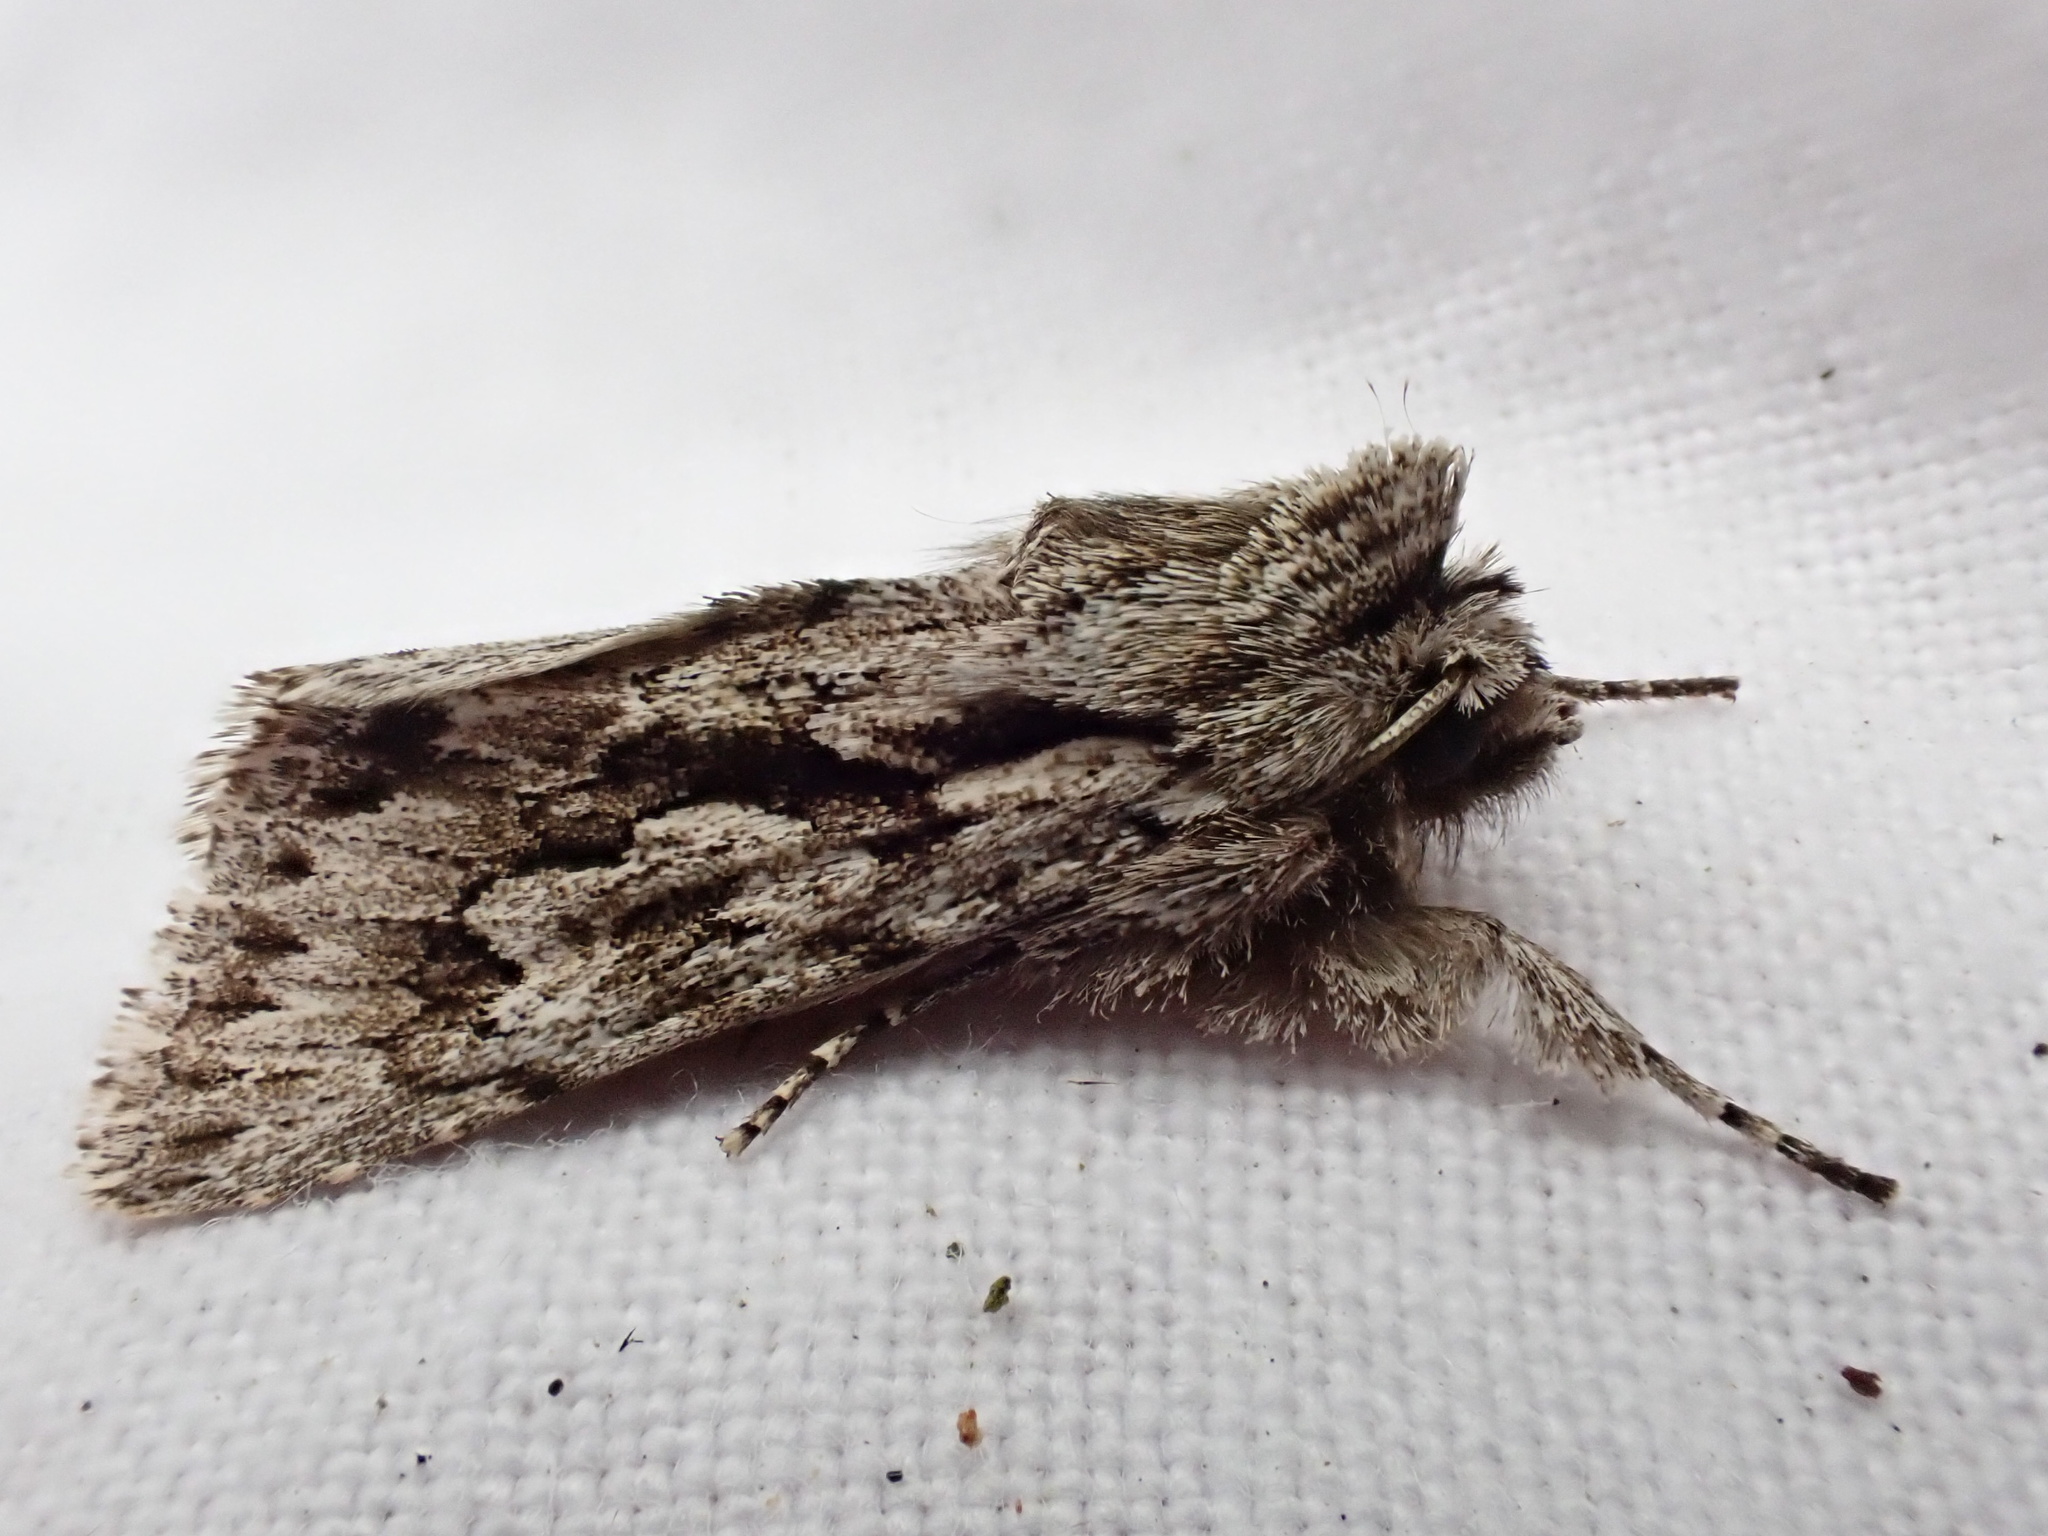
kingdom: Animalia
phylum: Arthropoda
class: Insecta
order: Lepidoptera
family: Noctuidae
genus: Xylocampa
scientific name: Xylocampa areola
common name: Early grey
